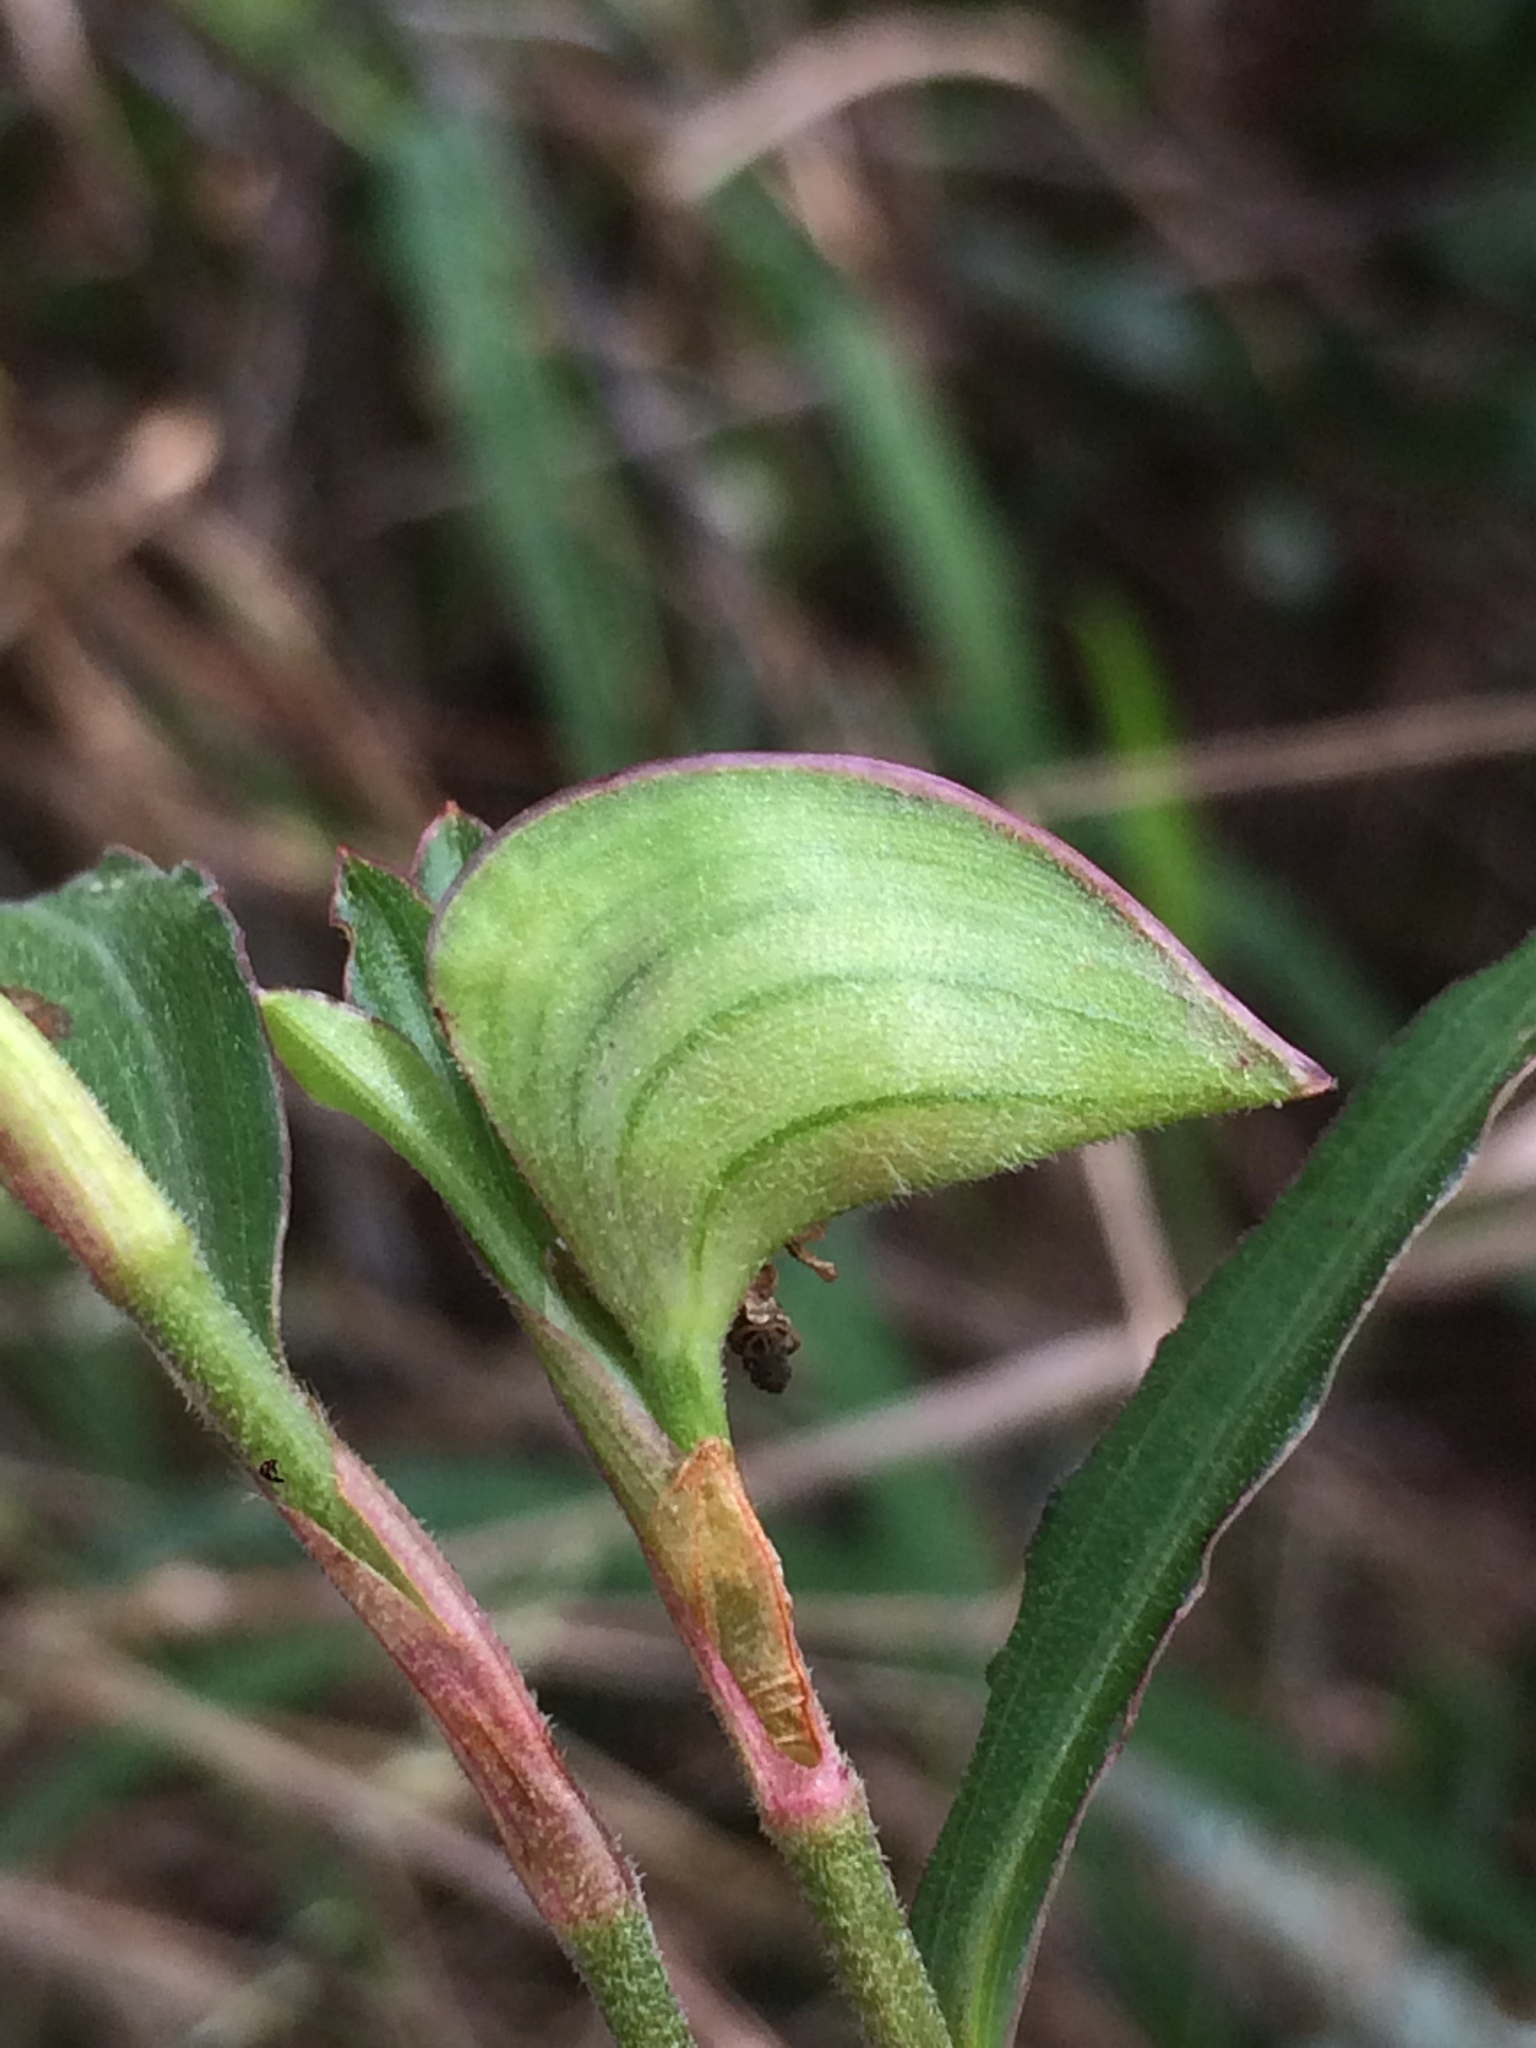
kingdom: Plantae
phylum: Tracheophyta
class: Liliopsida
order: Commelinales
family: Commelinaceae
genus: Commelina
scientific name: Commelina erecta
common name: Blousel blommetjie
